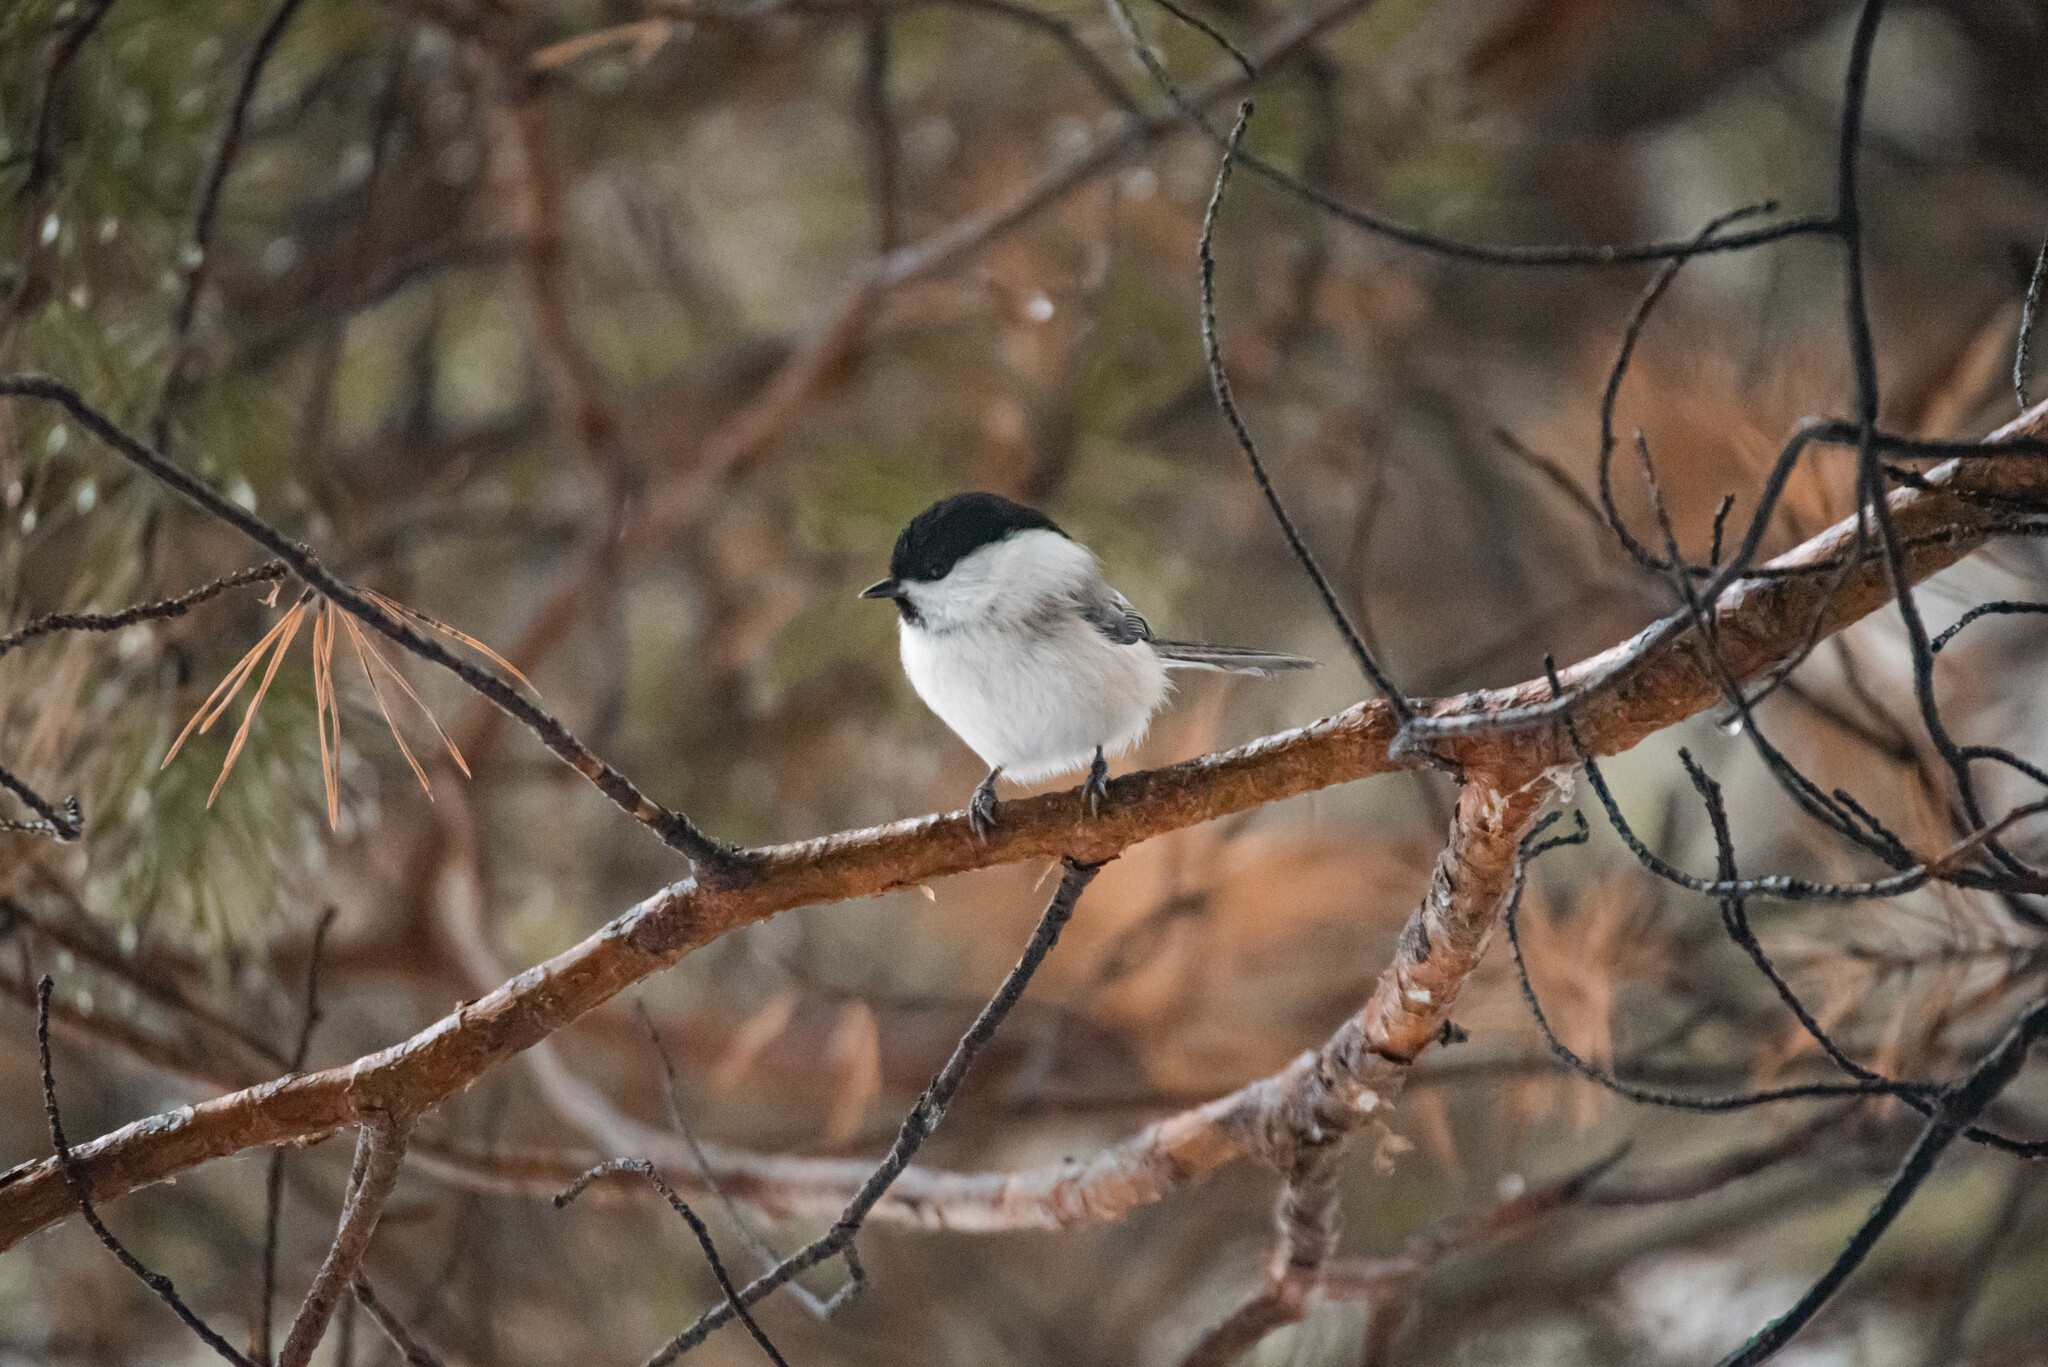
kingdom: Animalia
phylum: Chordata
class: Aves
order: Passeriformes
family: Paridae
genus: Poecile
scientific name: Poecile montanus
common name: Willow tit
